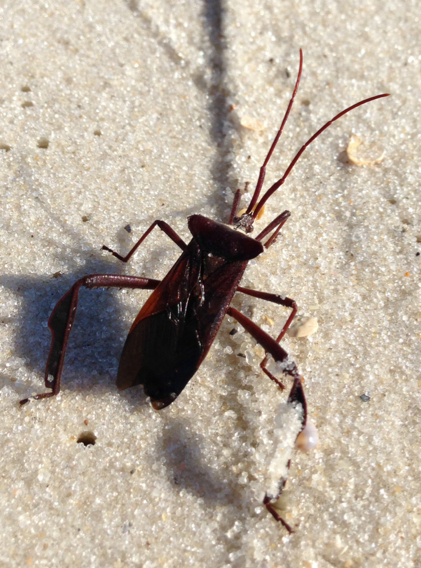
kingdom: Animalia
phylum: Arthropoda
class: Insecta
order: Hemiptera
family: Coreidae
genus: Acanthocephala
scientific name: Acanthocephala declivis
